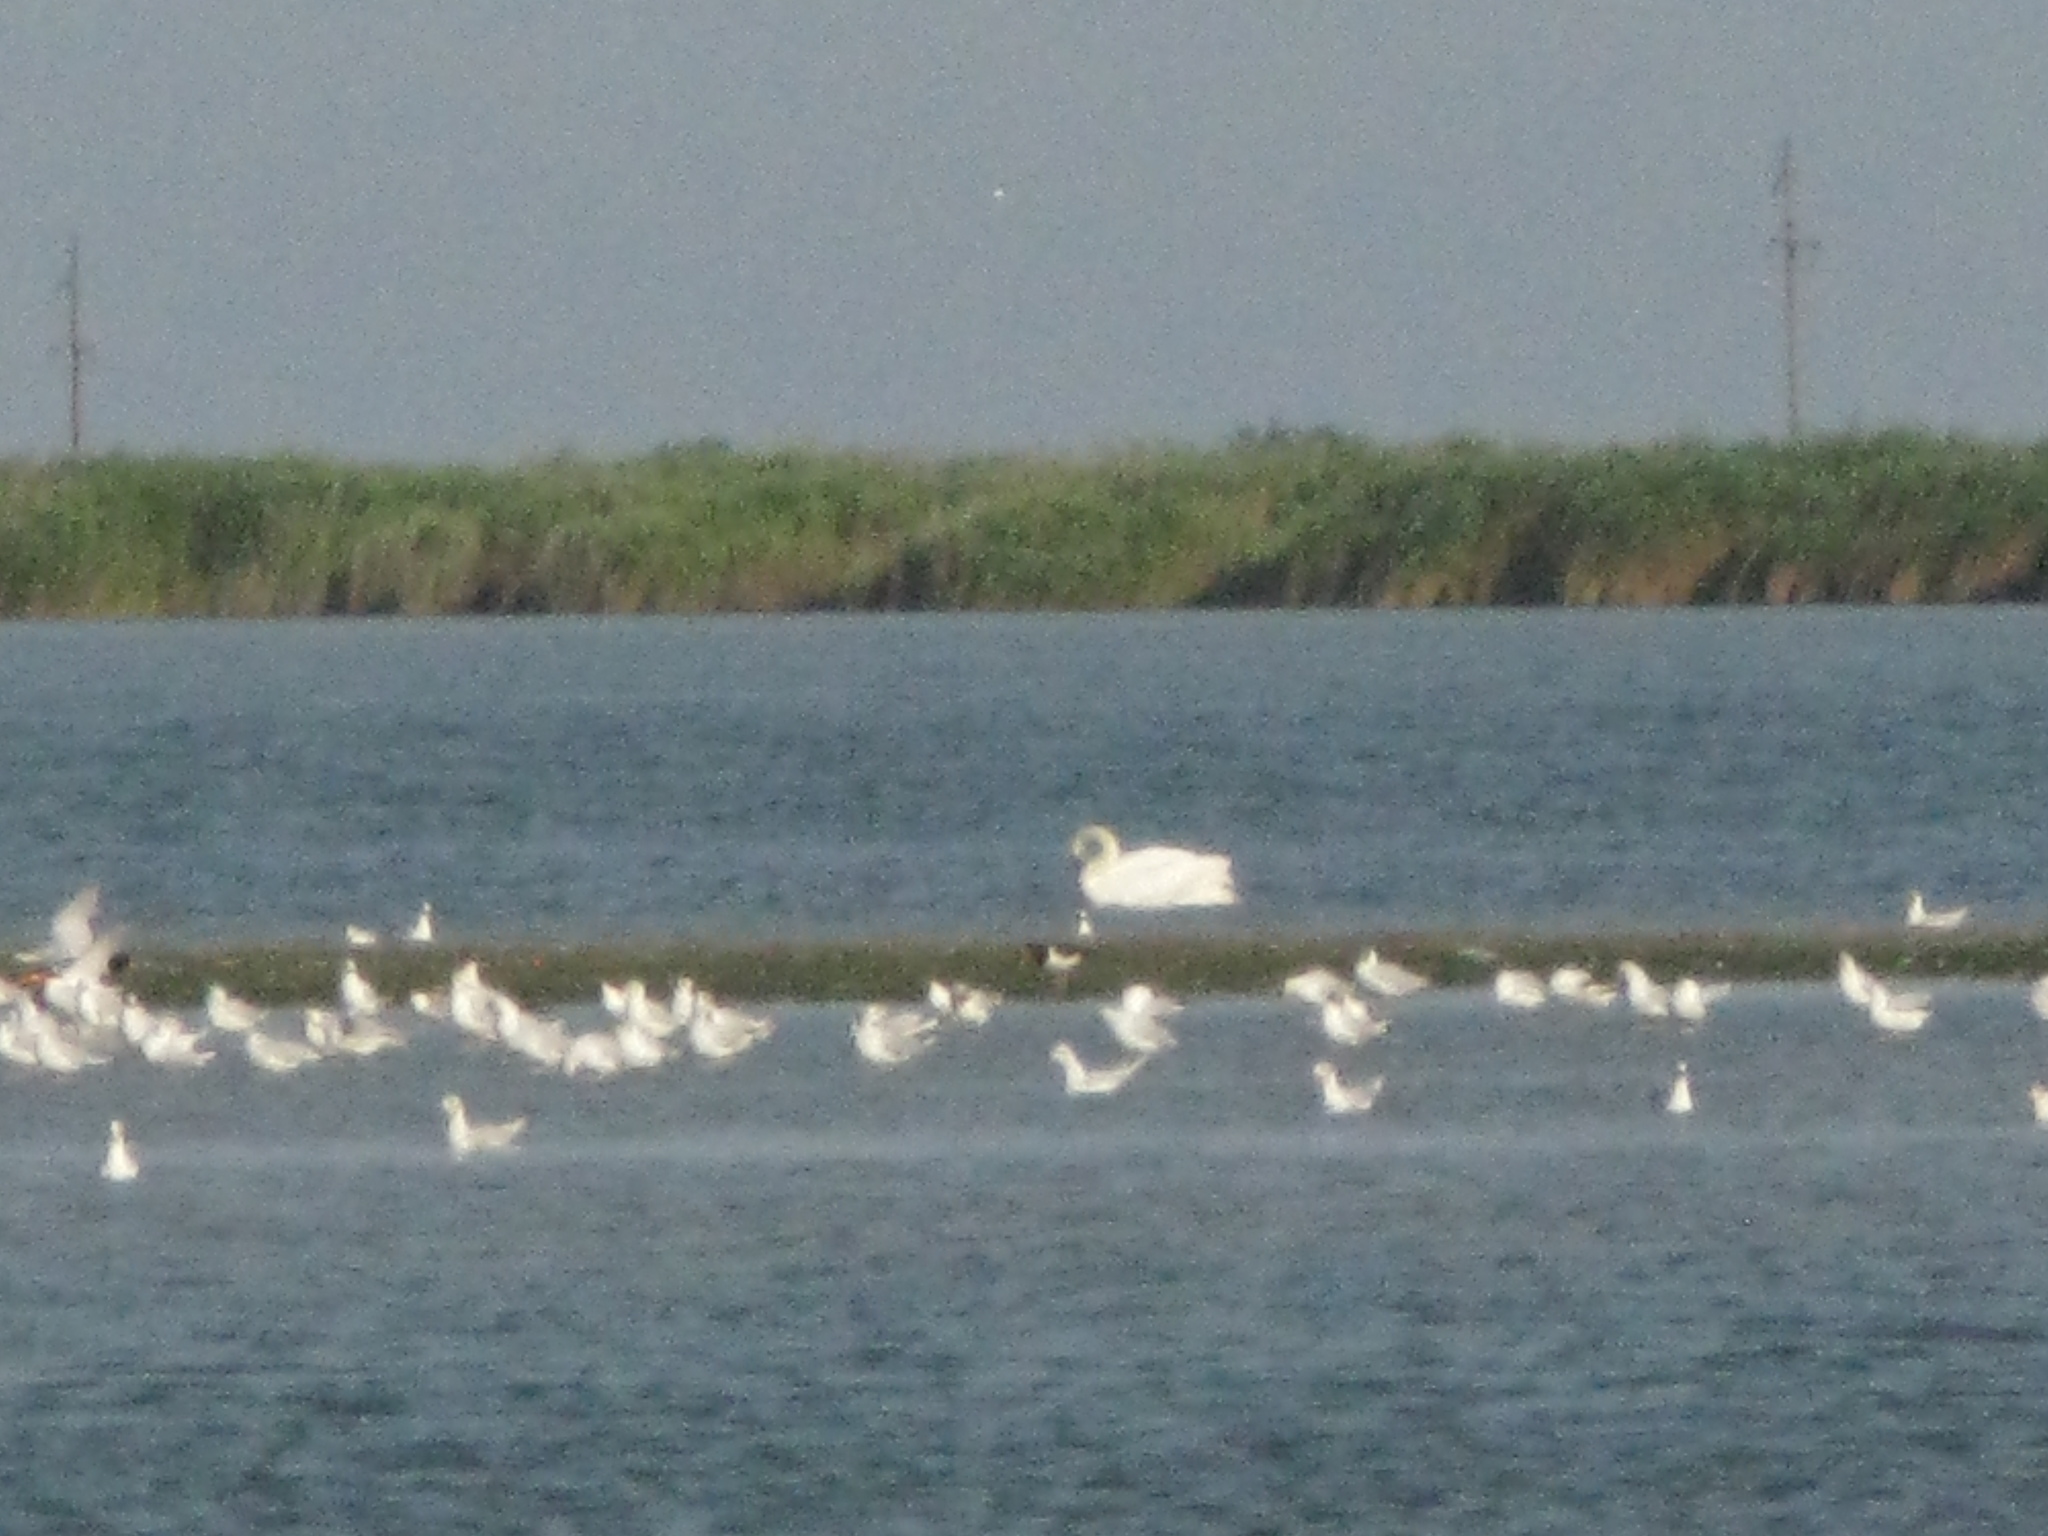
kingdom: Animalia
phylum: Chordata
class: Aves
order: Charadriiformes
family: Haematopodidae
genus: Haematopus
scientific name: Haematopus ostralegus
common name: Eurasian oystercatcher
